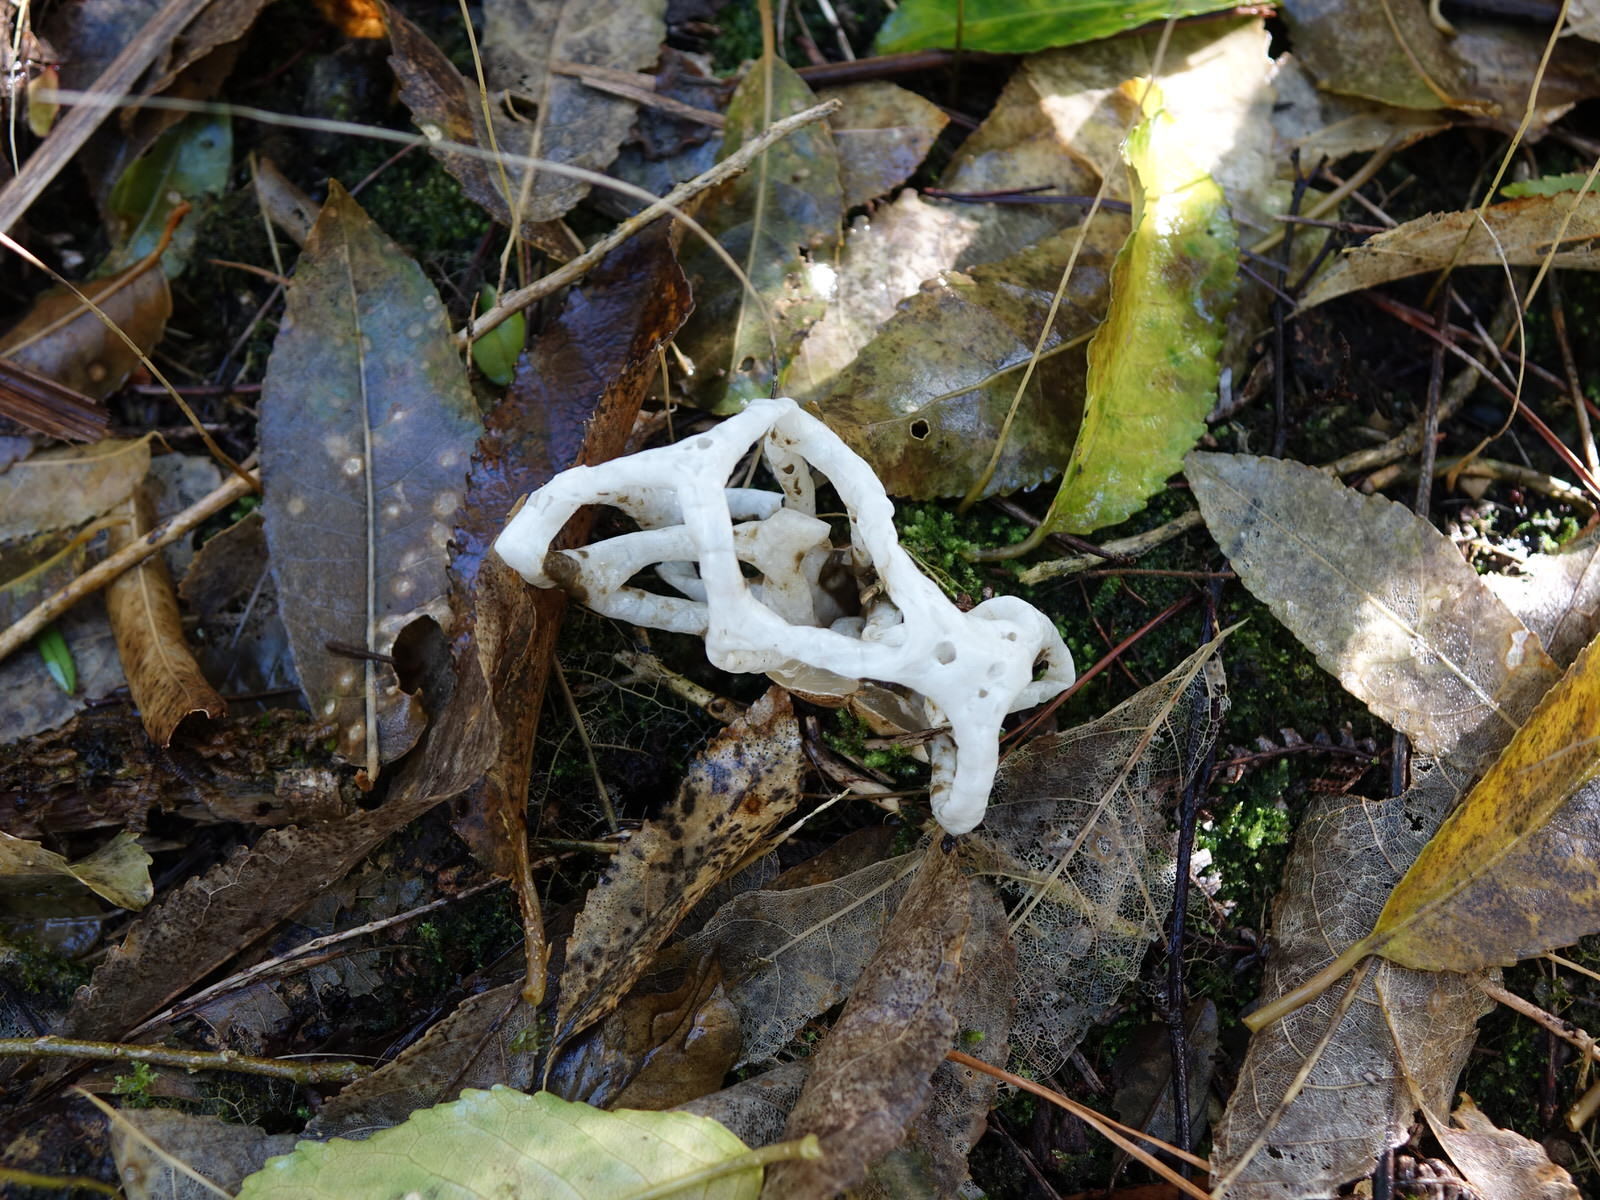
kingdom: Fungi
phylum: Basidiomycota
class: Agaricomycetes
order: Phallales
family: Phallaceae
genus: Ileodictyon
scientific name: Ileodictyon cibarium
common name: Basket fungus
